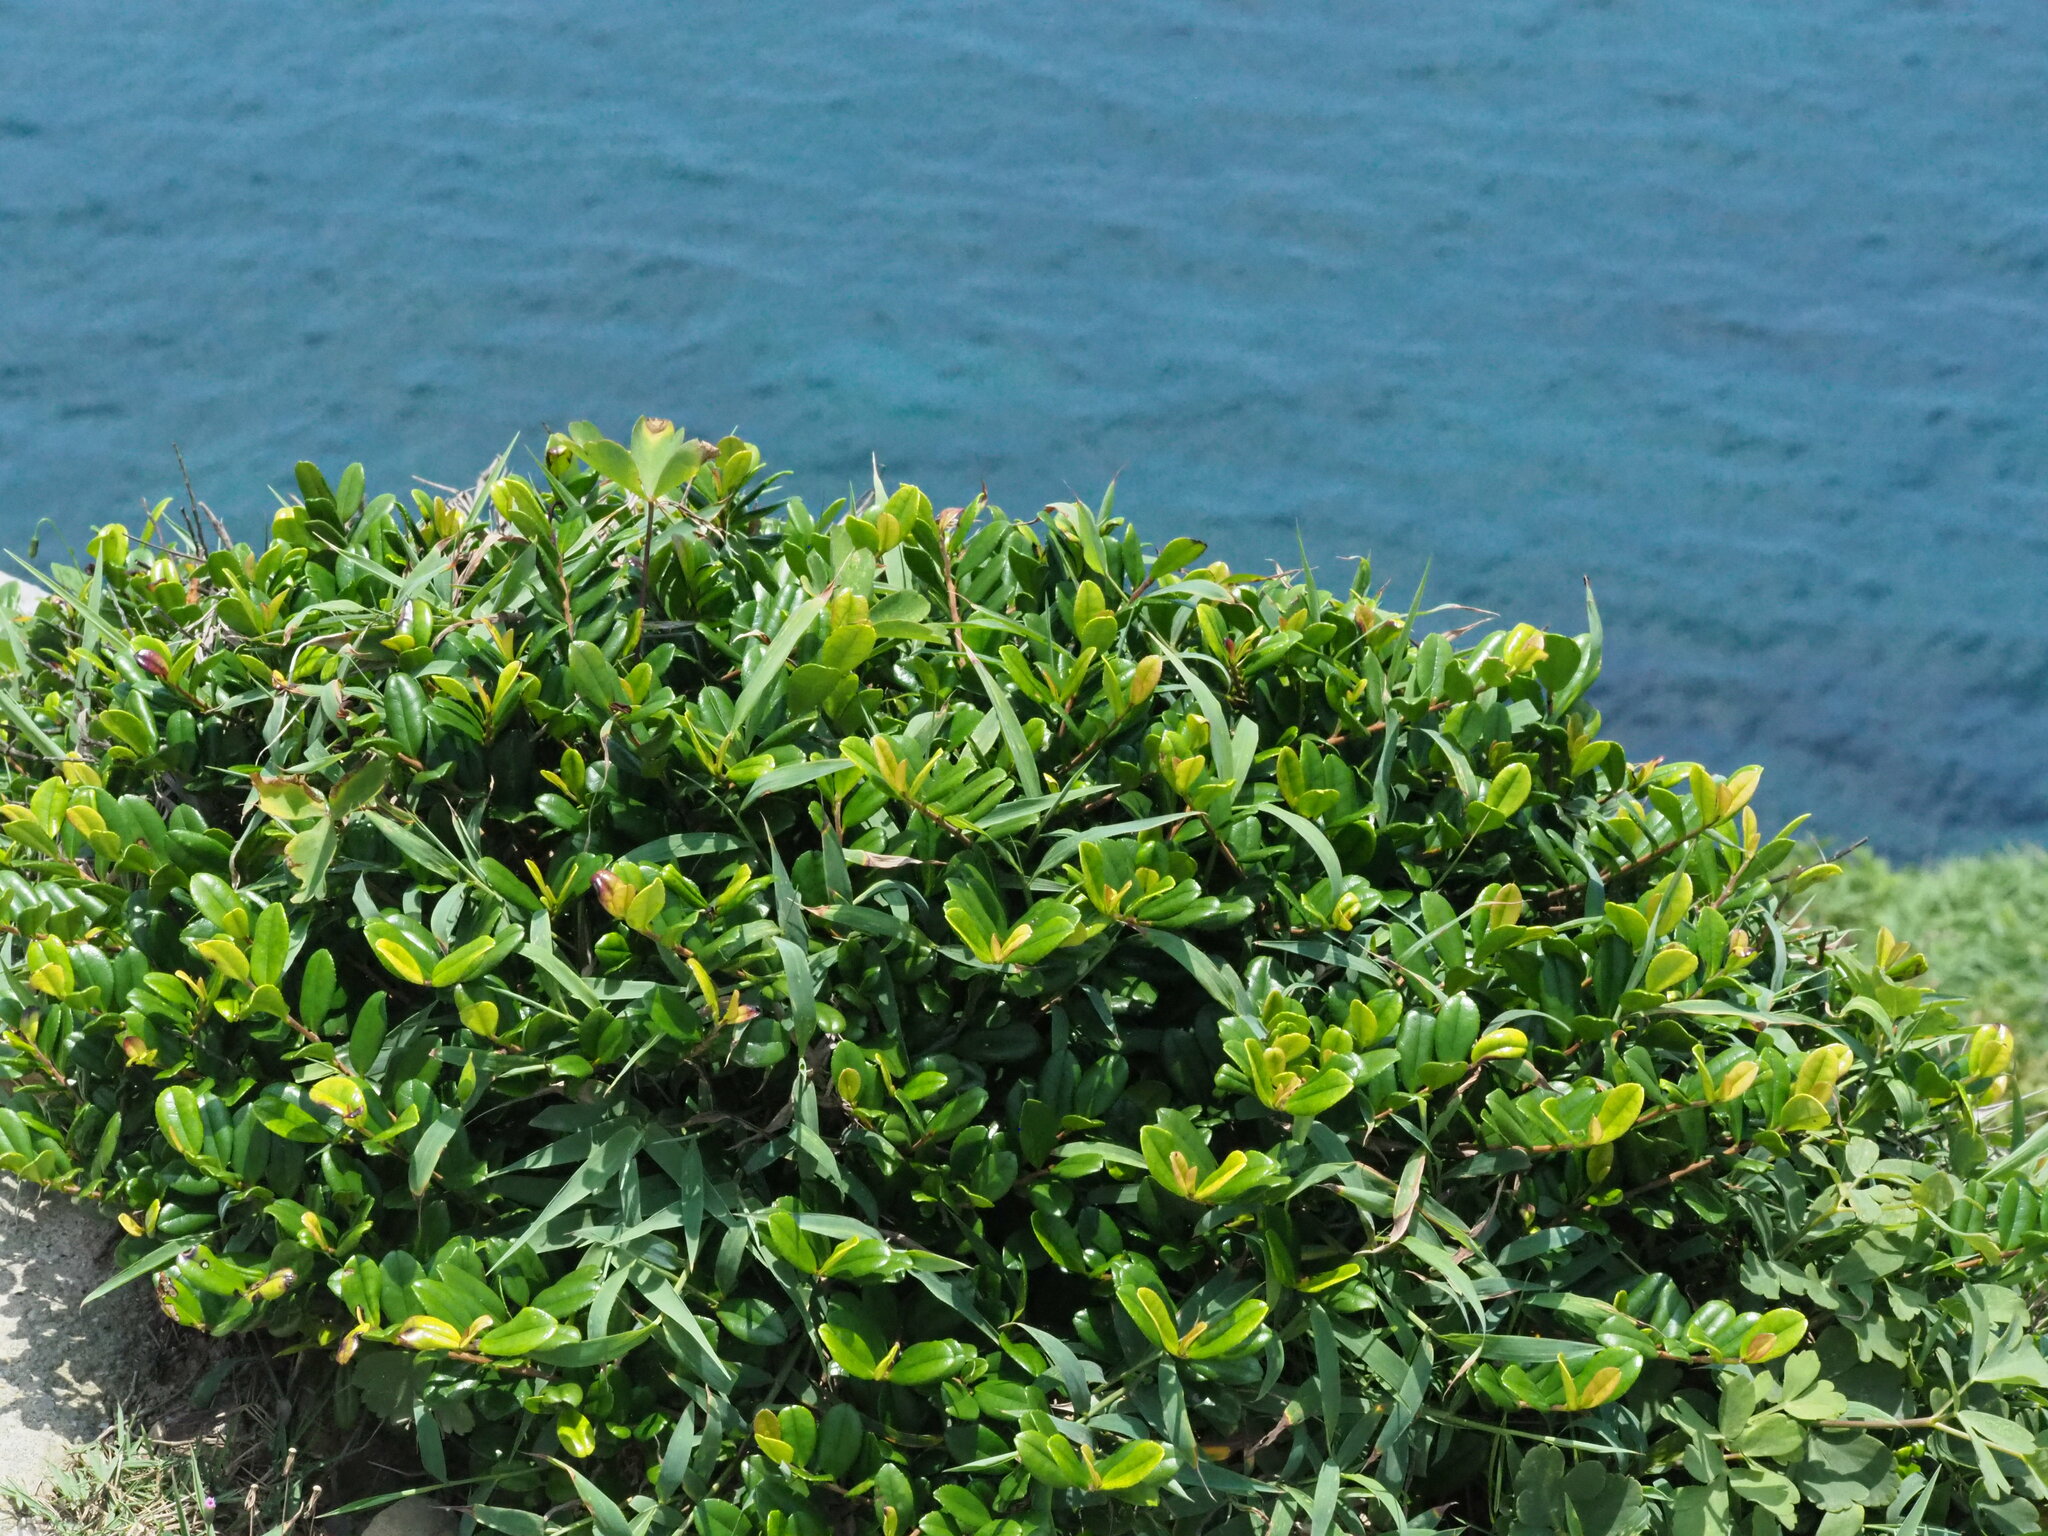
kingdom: Plantae
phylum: Tracheophyta
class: Magnoliopsida
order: Ericales
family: Pentaphylacaceae
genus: Eurya
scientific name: Eurya emarginata
